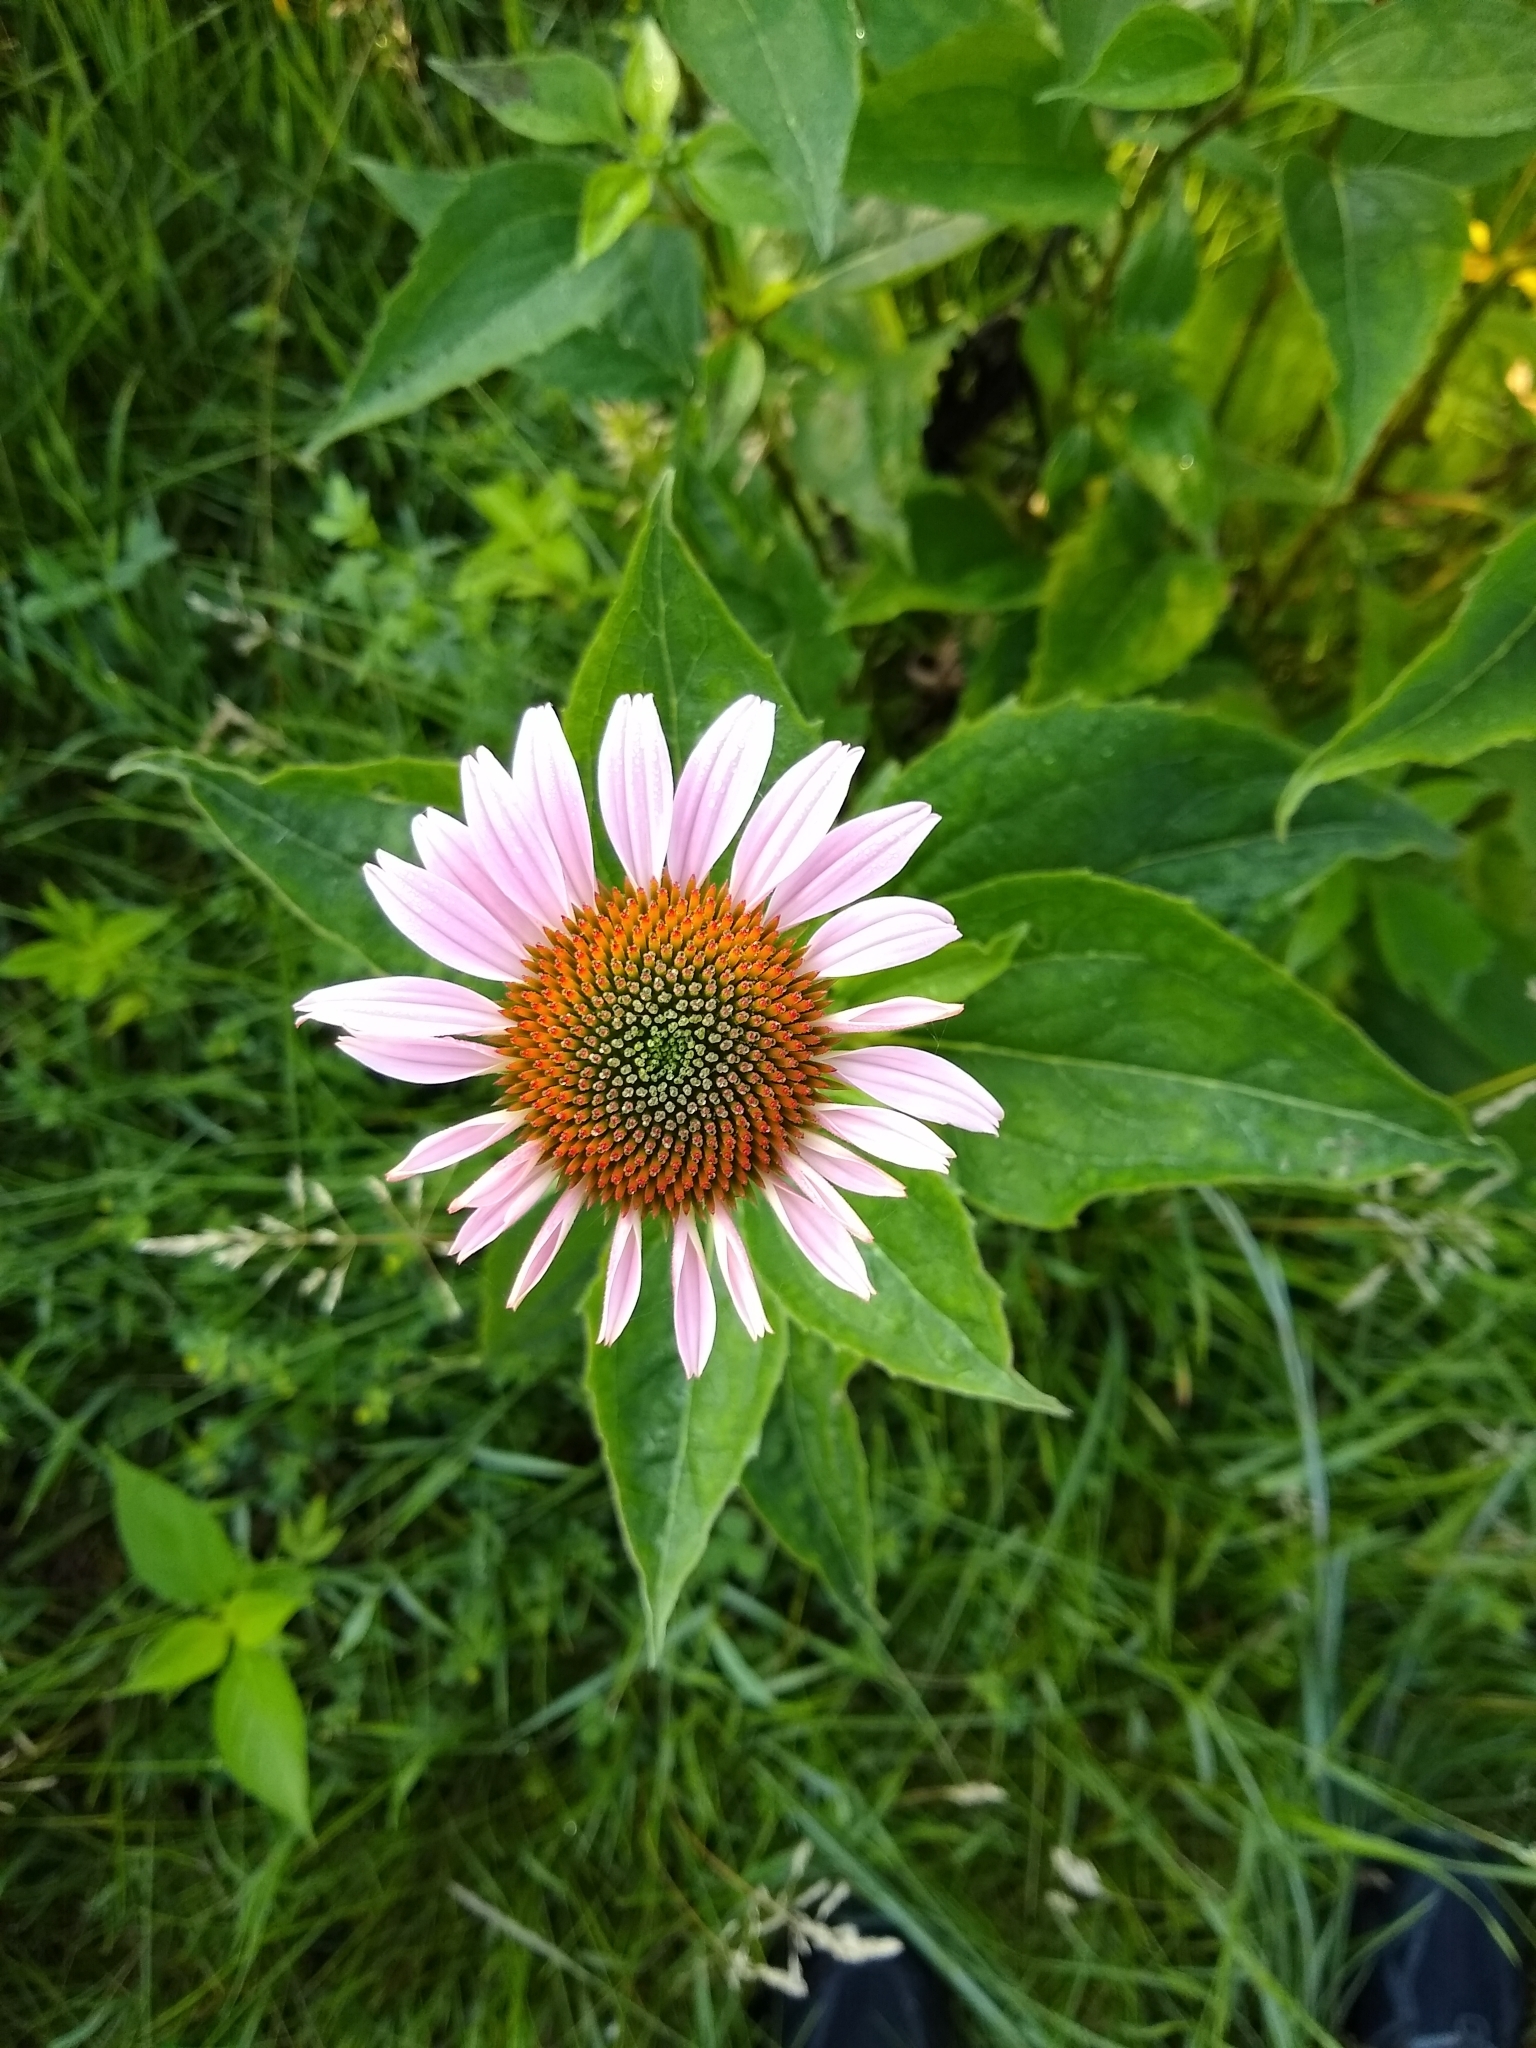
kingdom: Plantae
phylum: Tracheophyta
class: Magnoliopsida
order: Asterales
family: Asteraceae
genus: Echinacea
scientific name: Echinacea purpurea
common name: Broad-leaved purple coneflower
